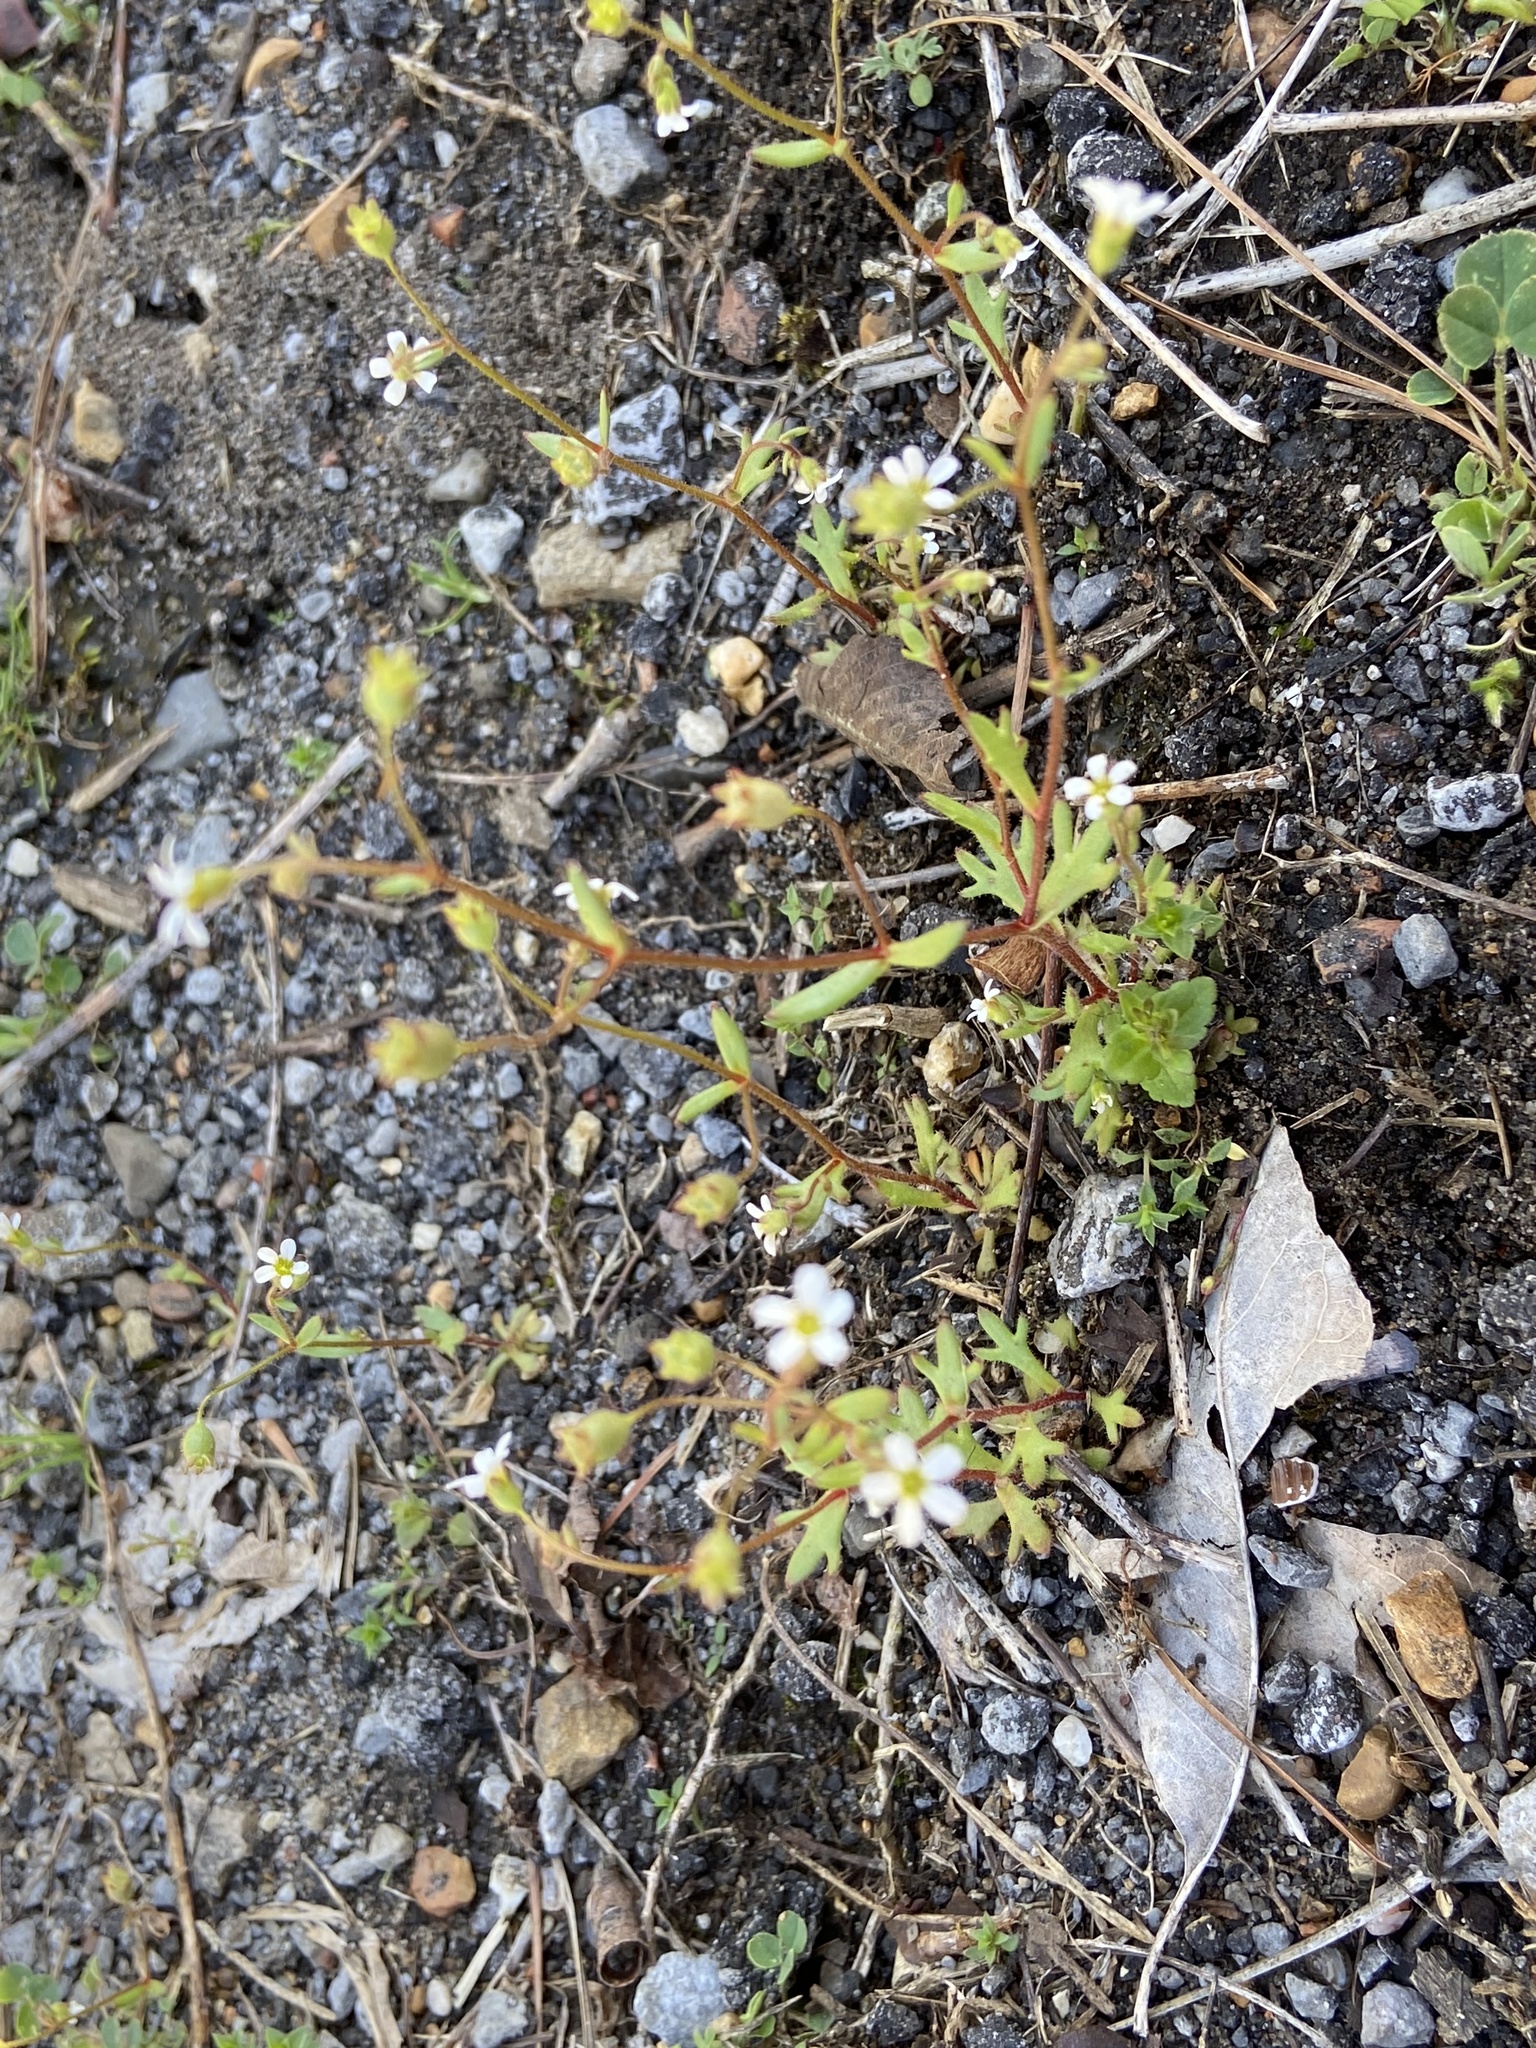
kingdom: Plantae
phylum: Tracheophyta
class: Magnoliopsida
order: Saxifragales
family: Saxifragaceae
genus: Saxifraga
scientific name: Saxifraga tridactylites
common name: Rue-leaved saxifrage
